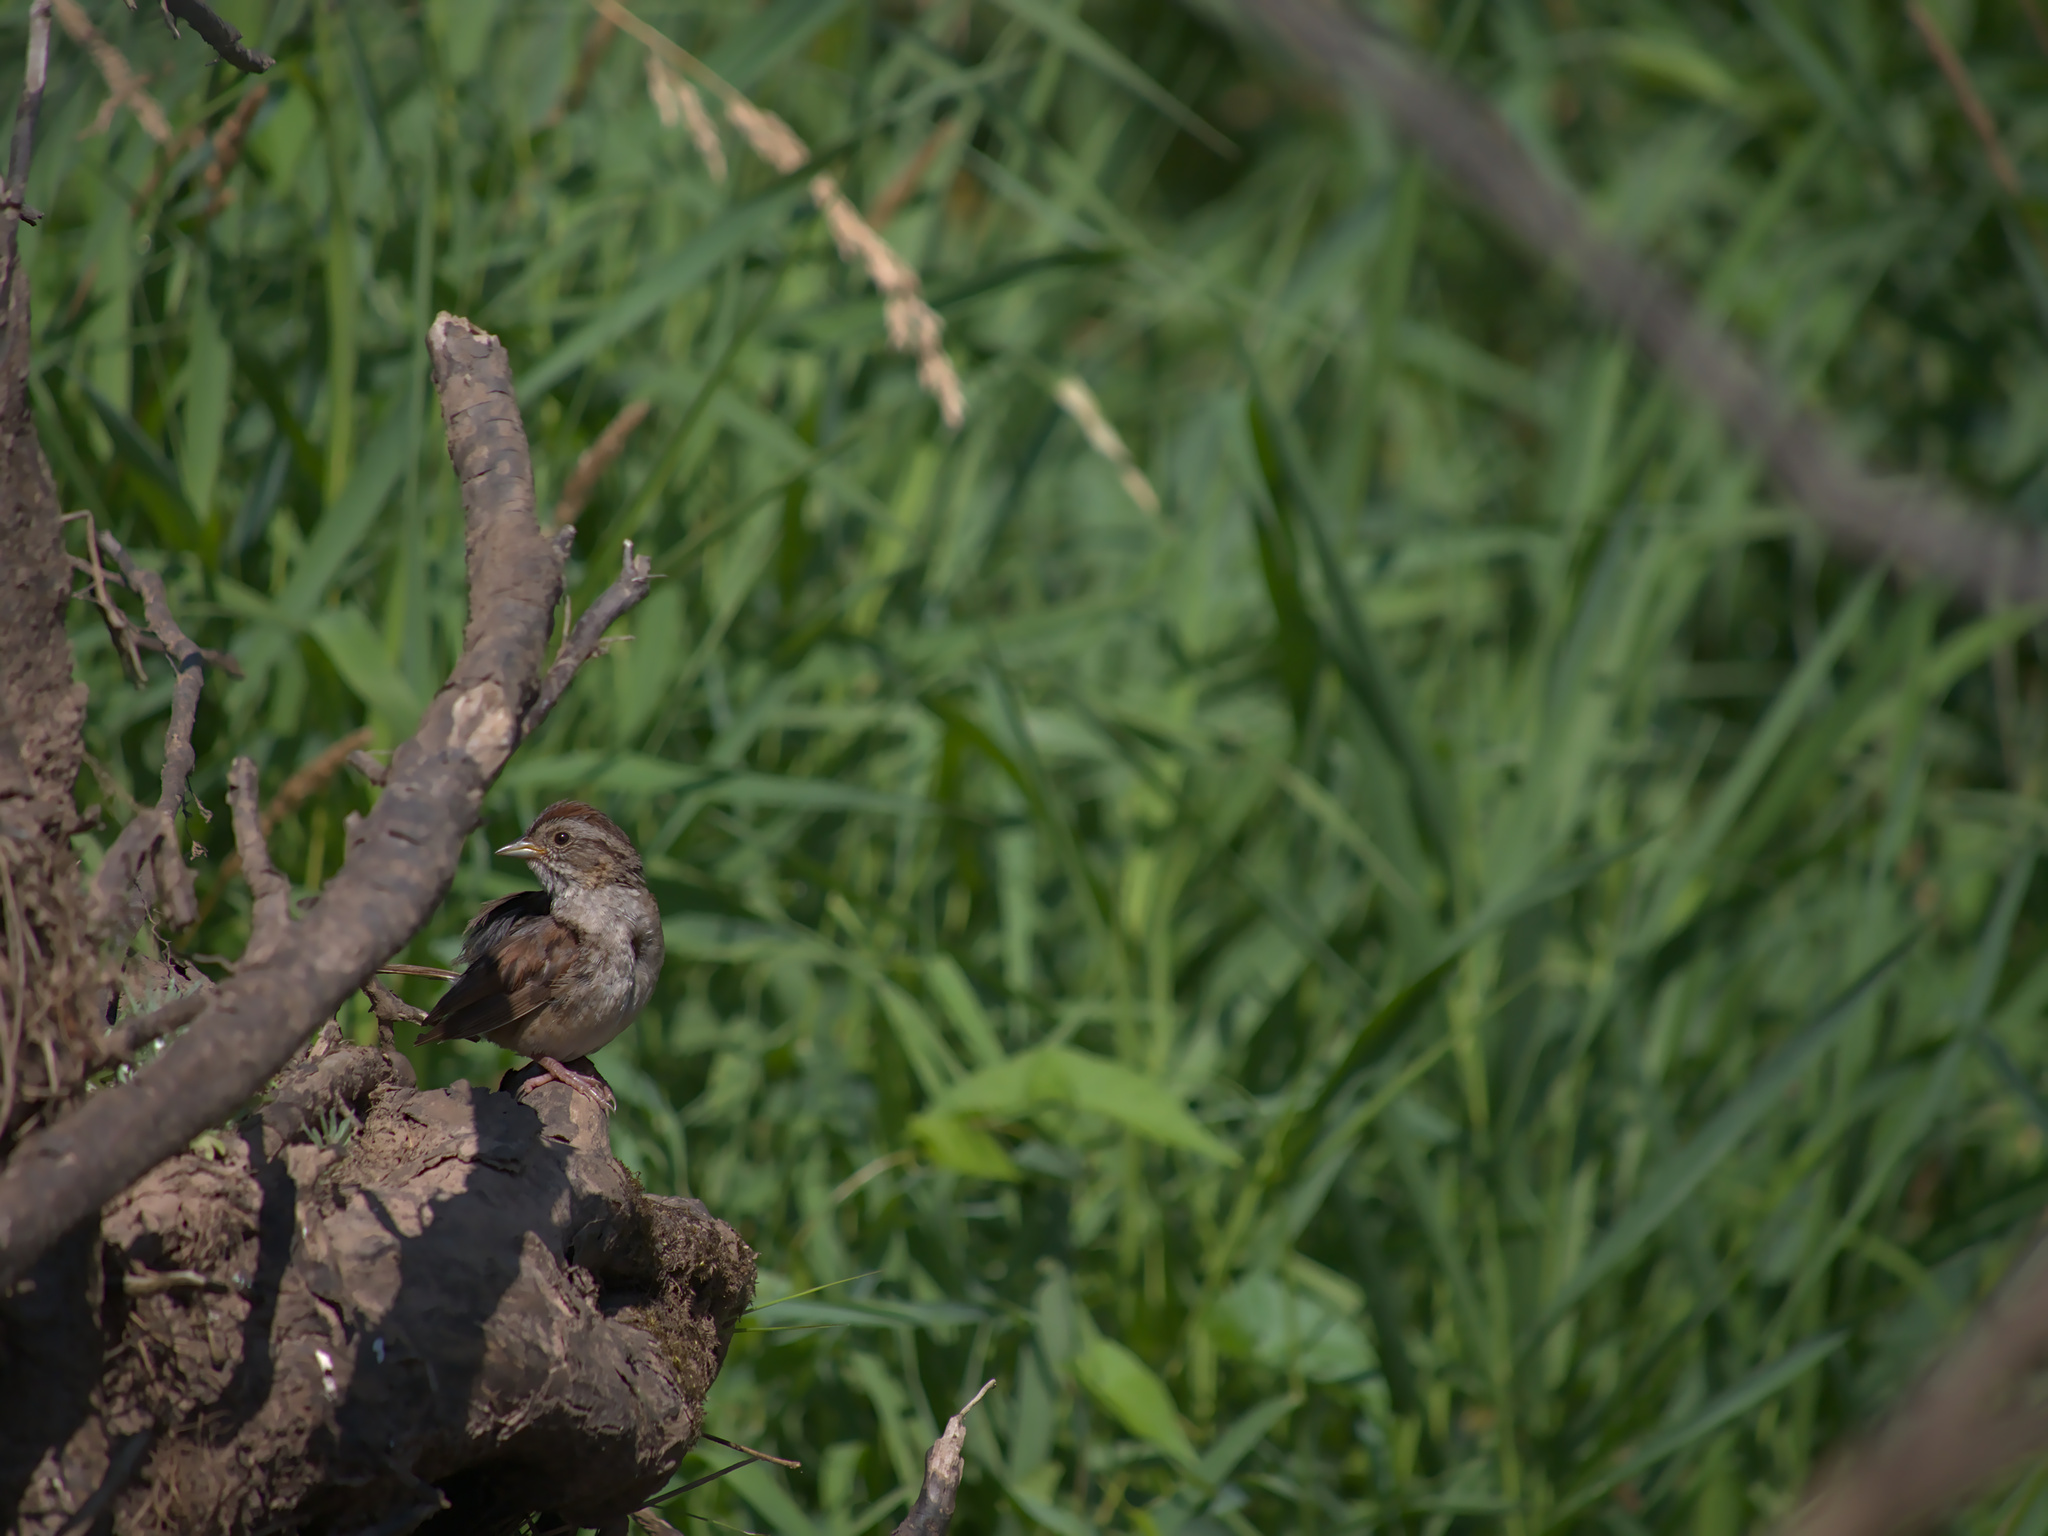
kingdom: Animalia
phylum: Chordata
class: Aves
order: Passeriformes
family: Passerellidae
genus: Melospiza
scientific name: Melospiza georgiana
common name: Swamp sparrow
